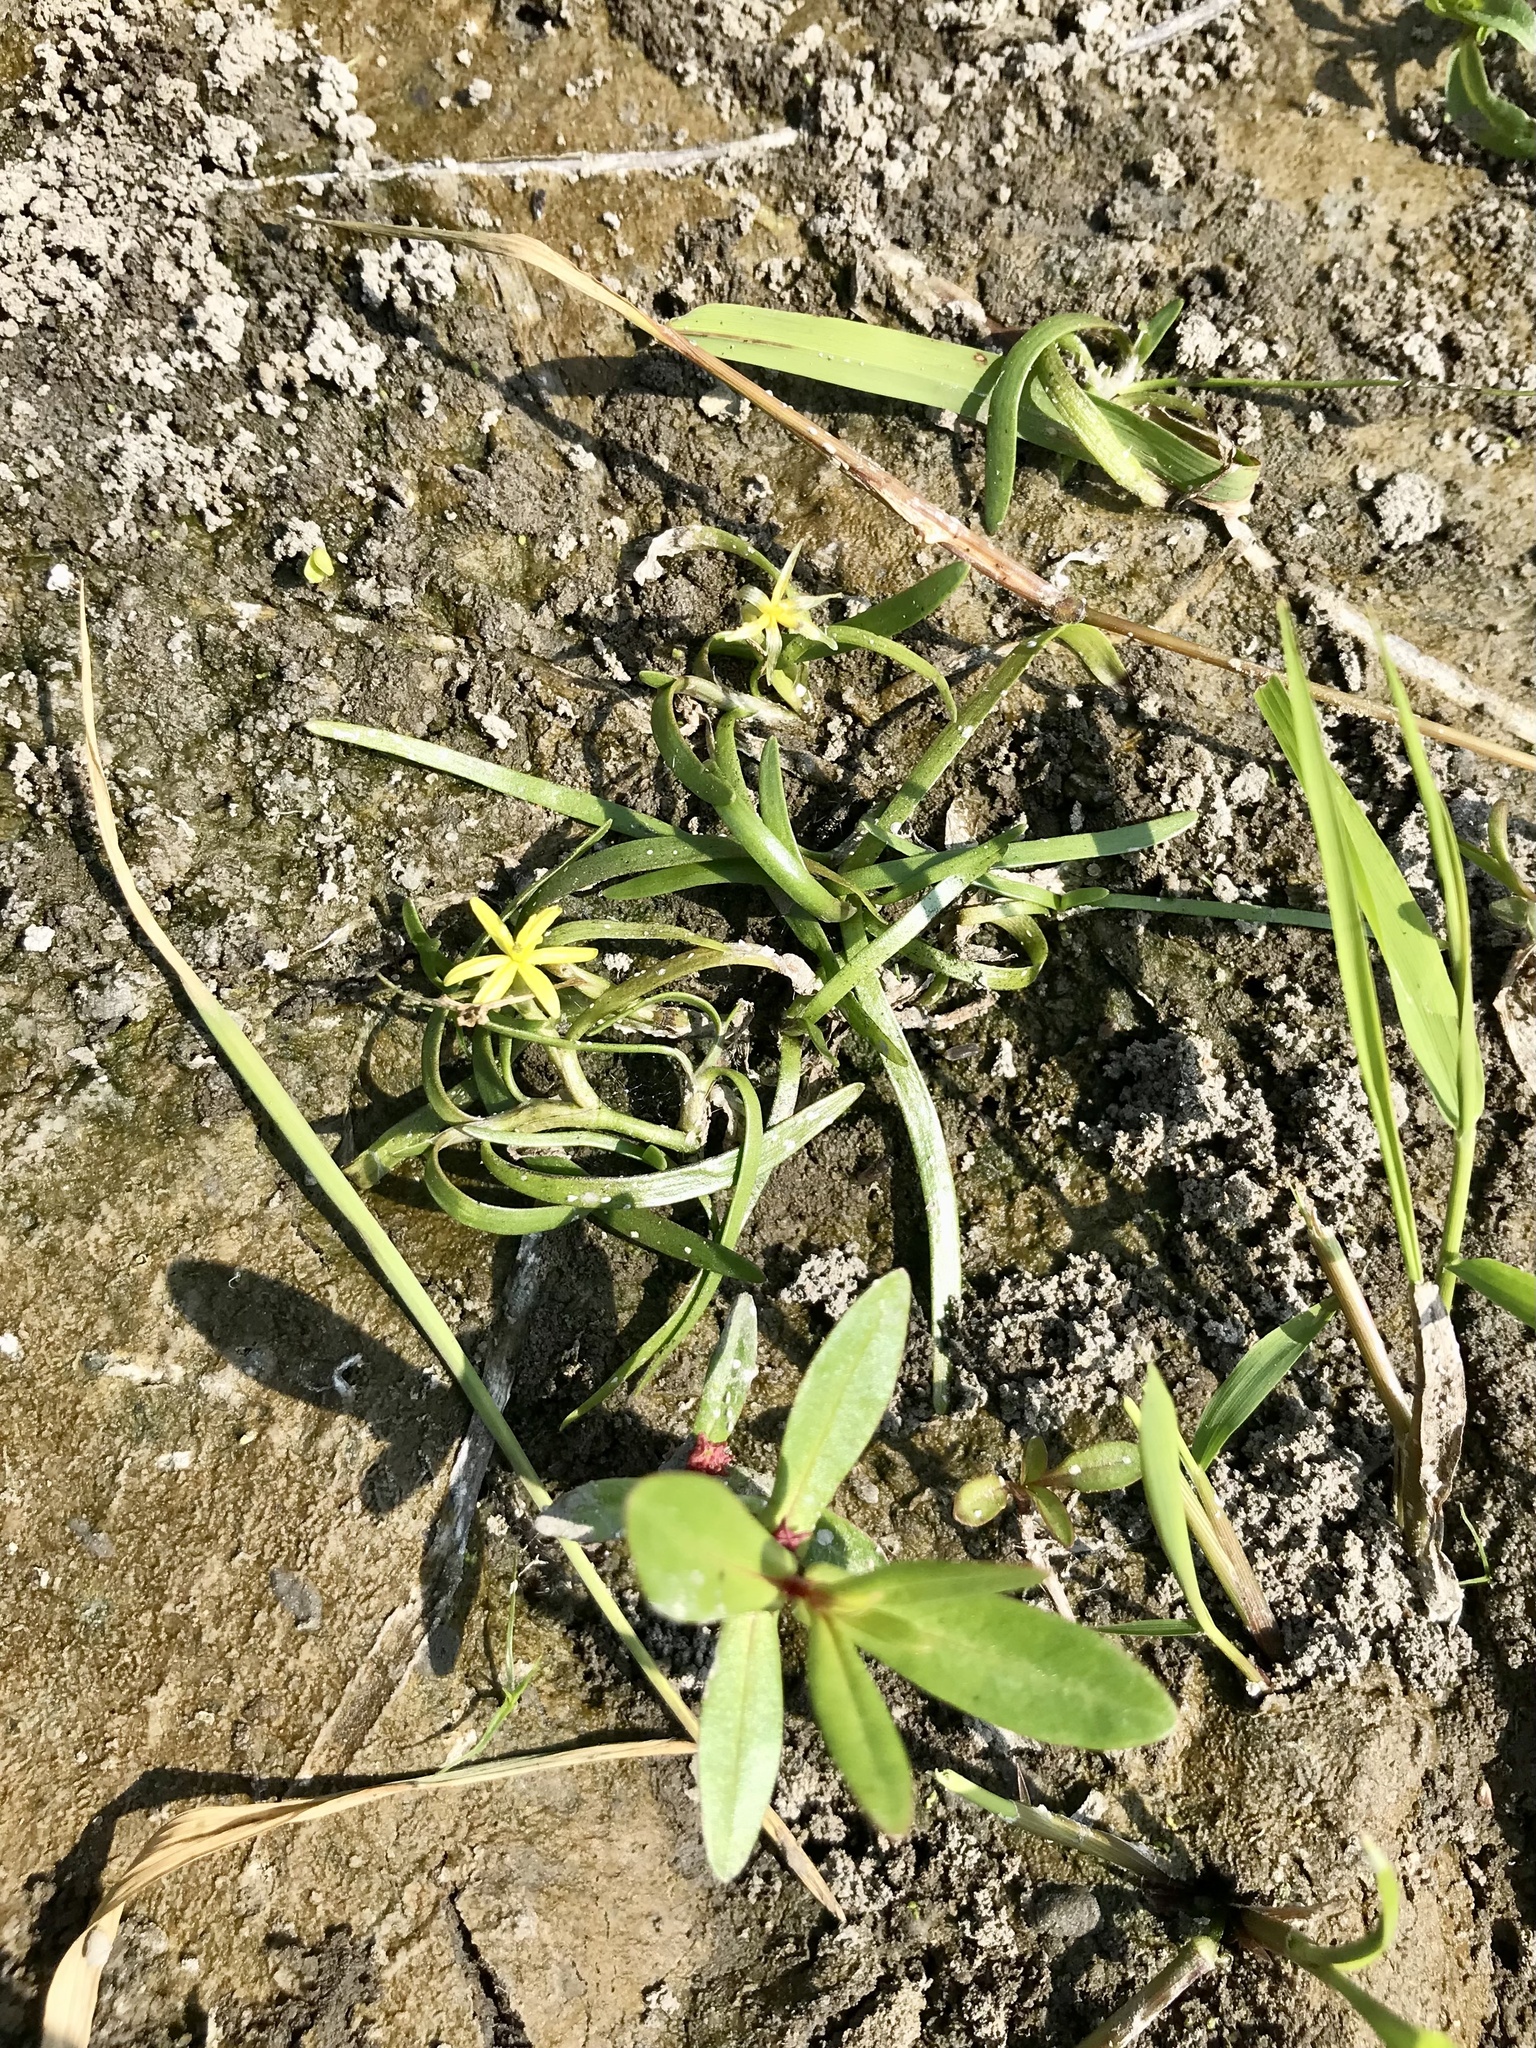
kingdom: Plantae
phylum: Tracheophyta
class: Liliopsida
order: Commelinales
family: Pontederiaceae
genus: Heteranthera
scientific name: Heteranthera dubia
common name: Grass-leaved mud plantain
